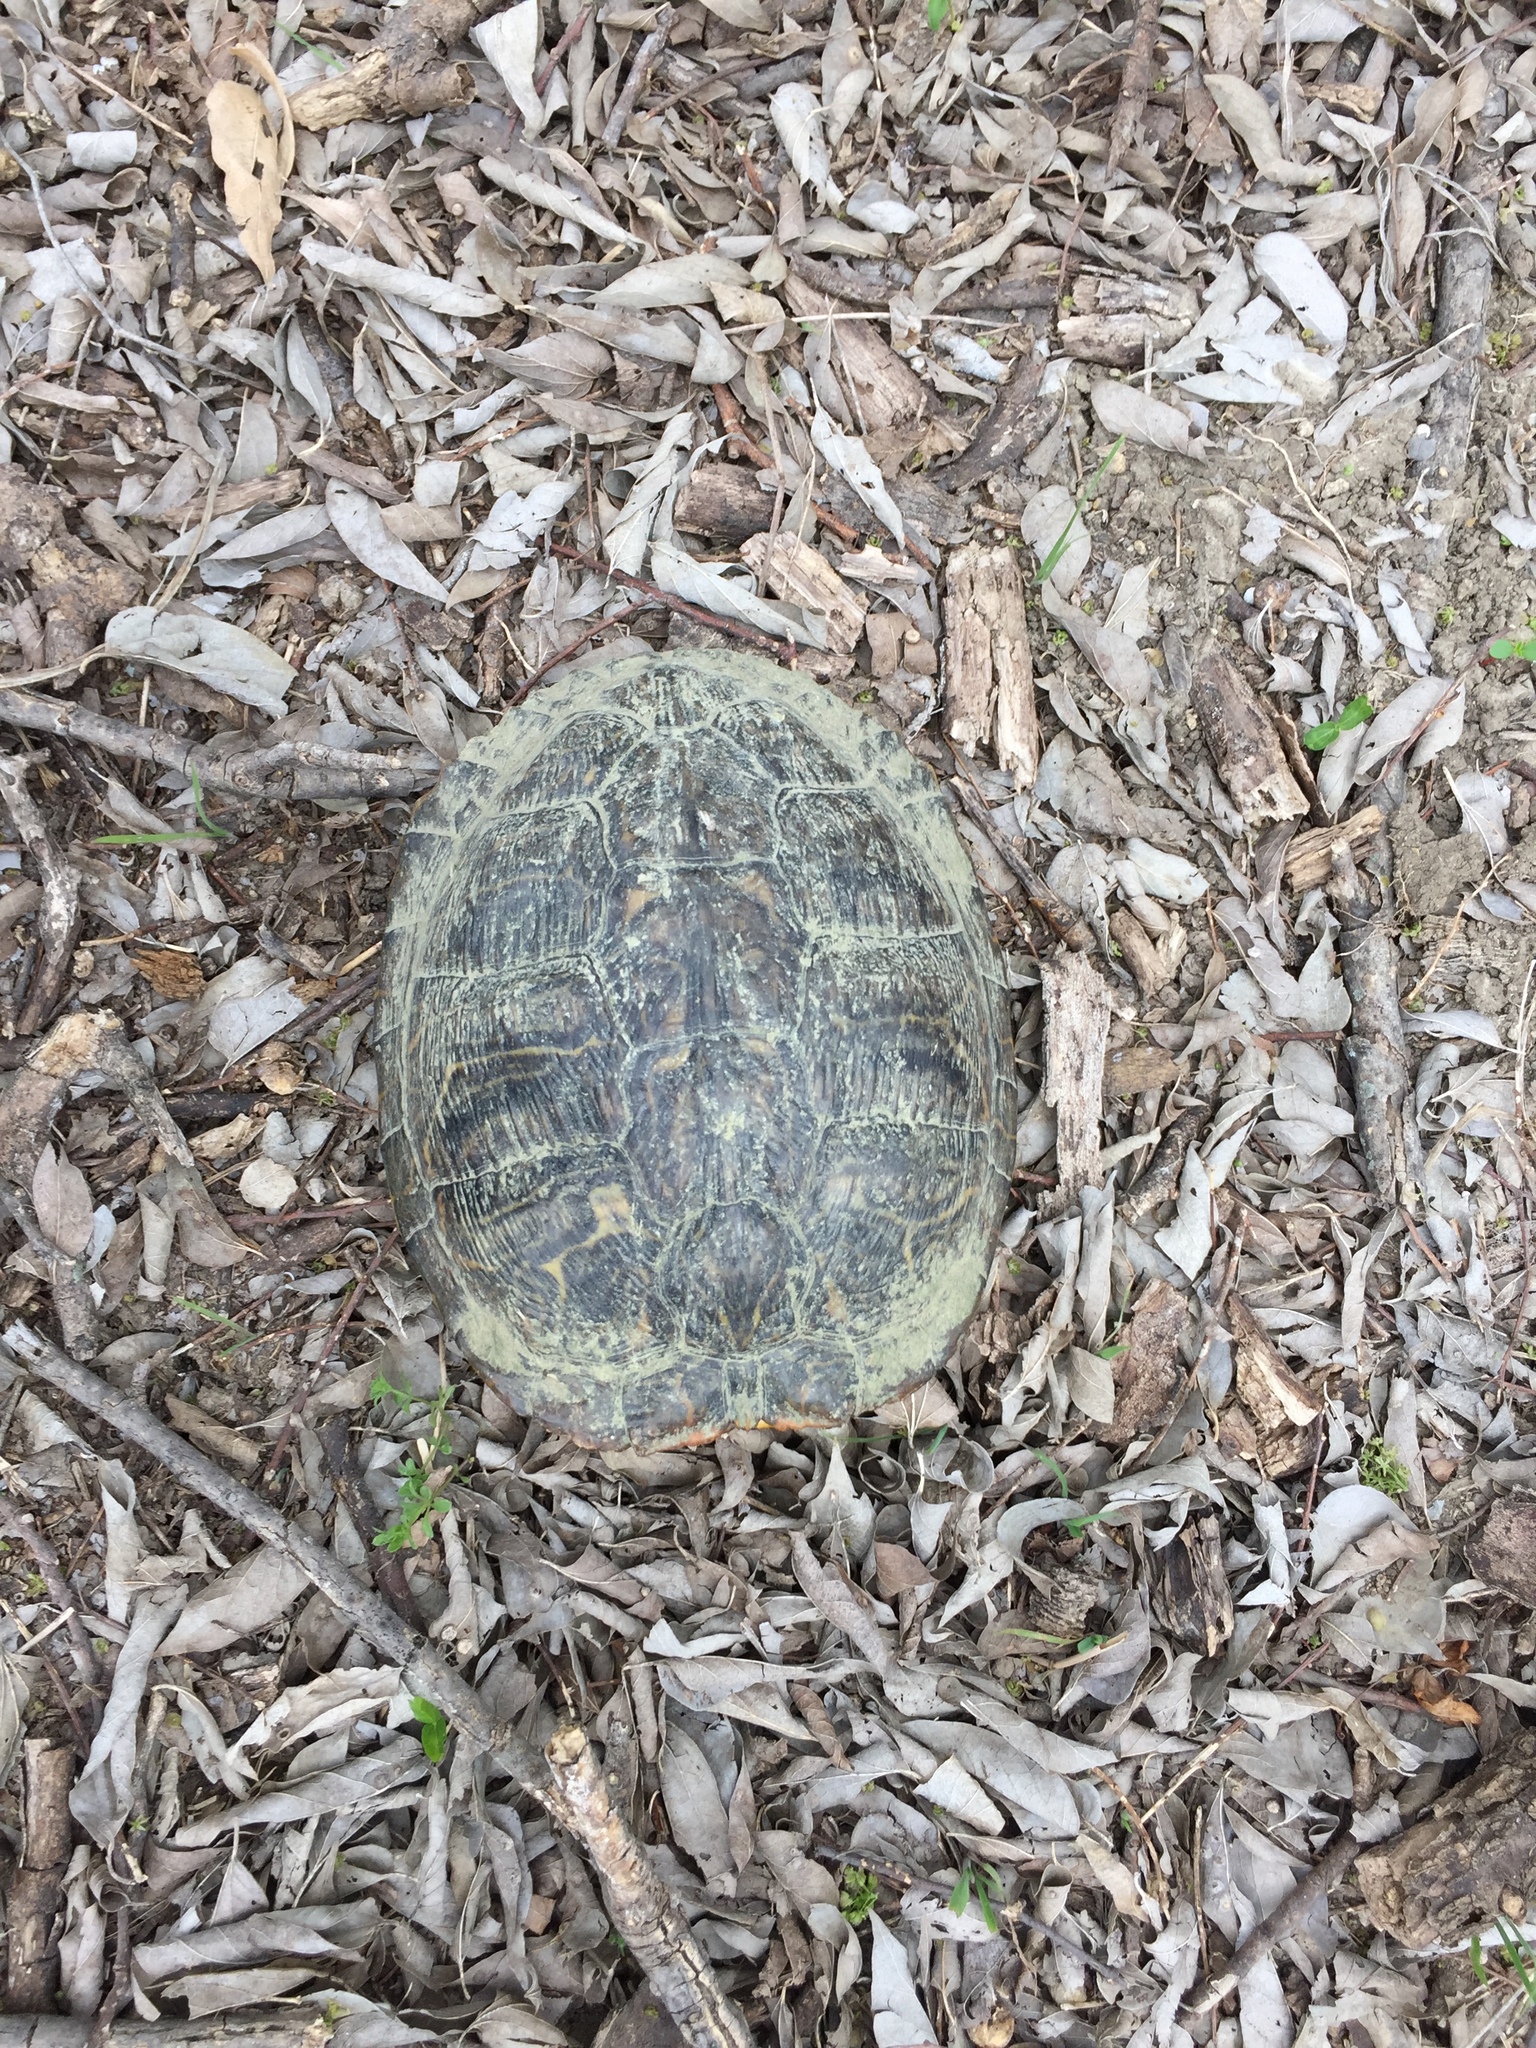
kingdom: Animalia
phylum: Chordata
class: Testudines
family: Emydidae
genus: Trachemys
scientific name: Trachemys scripta
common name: Slider
